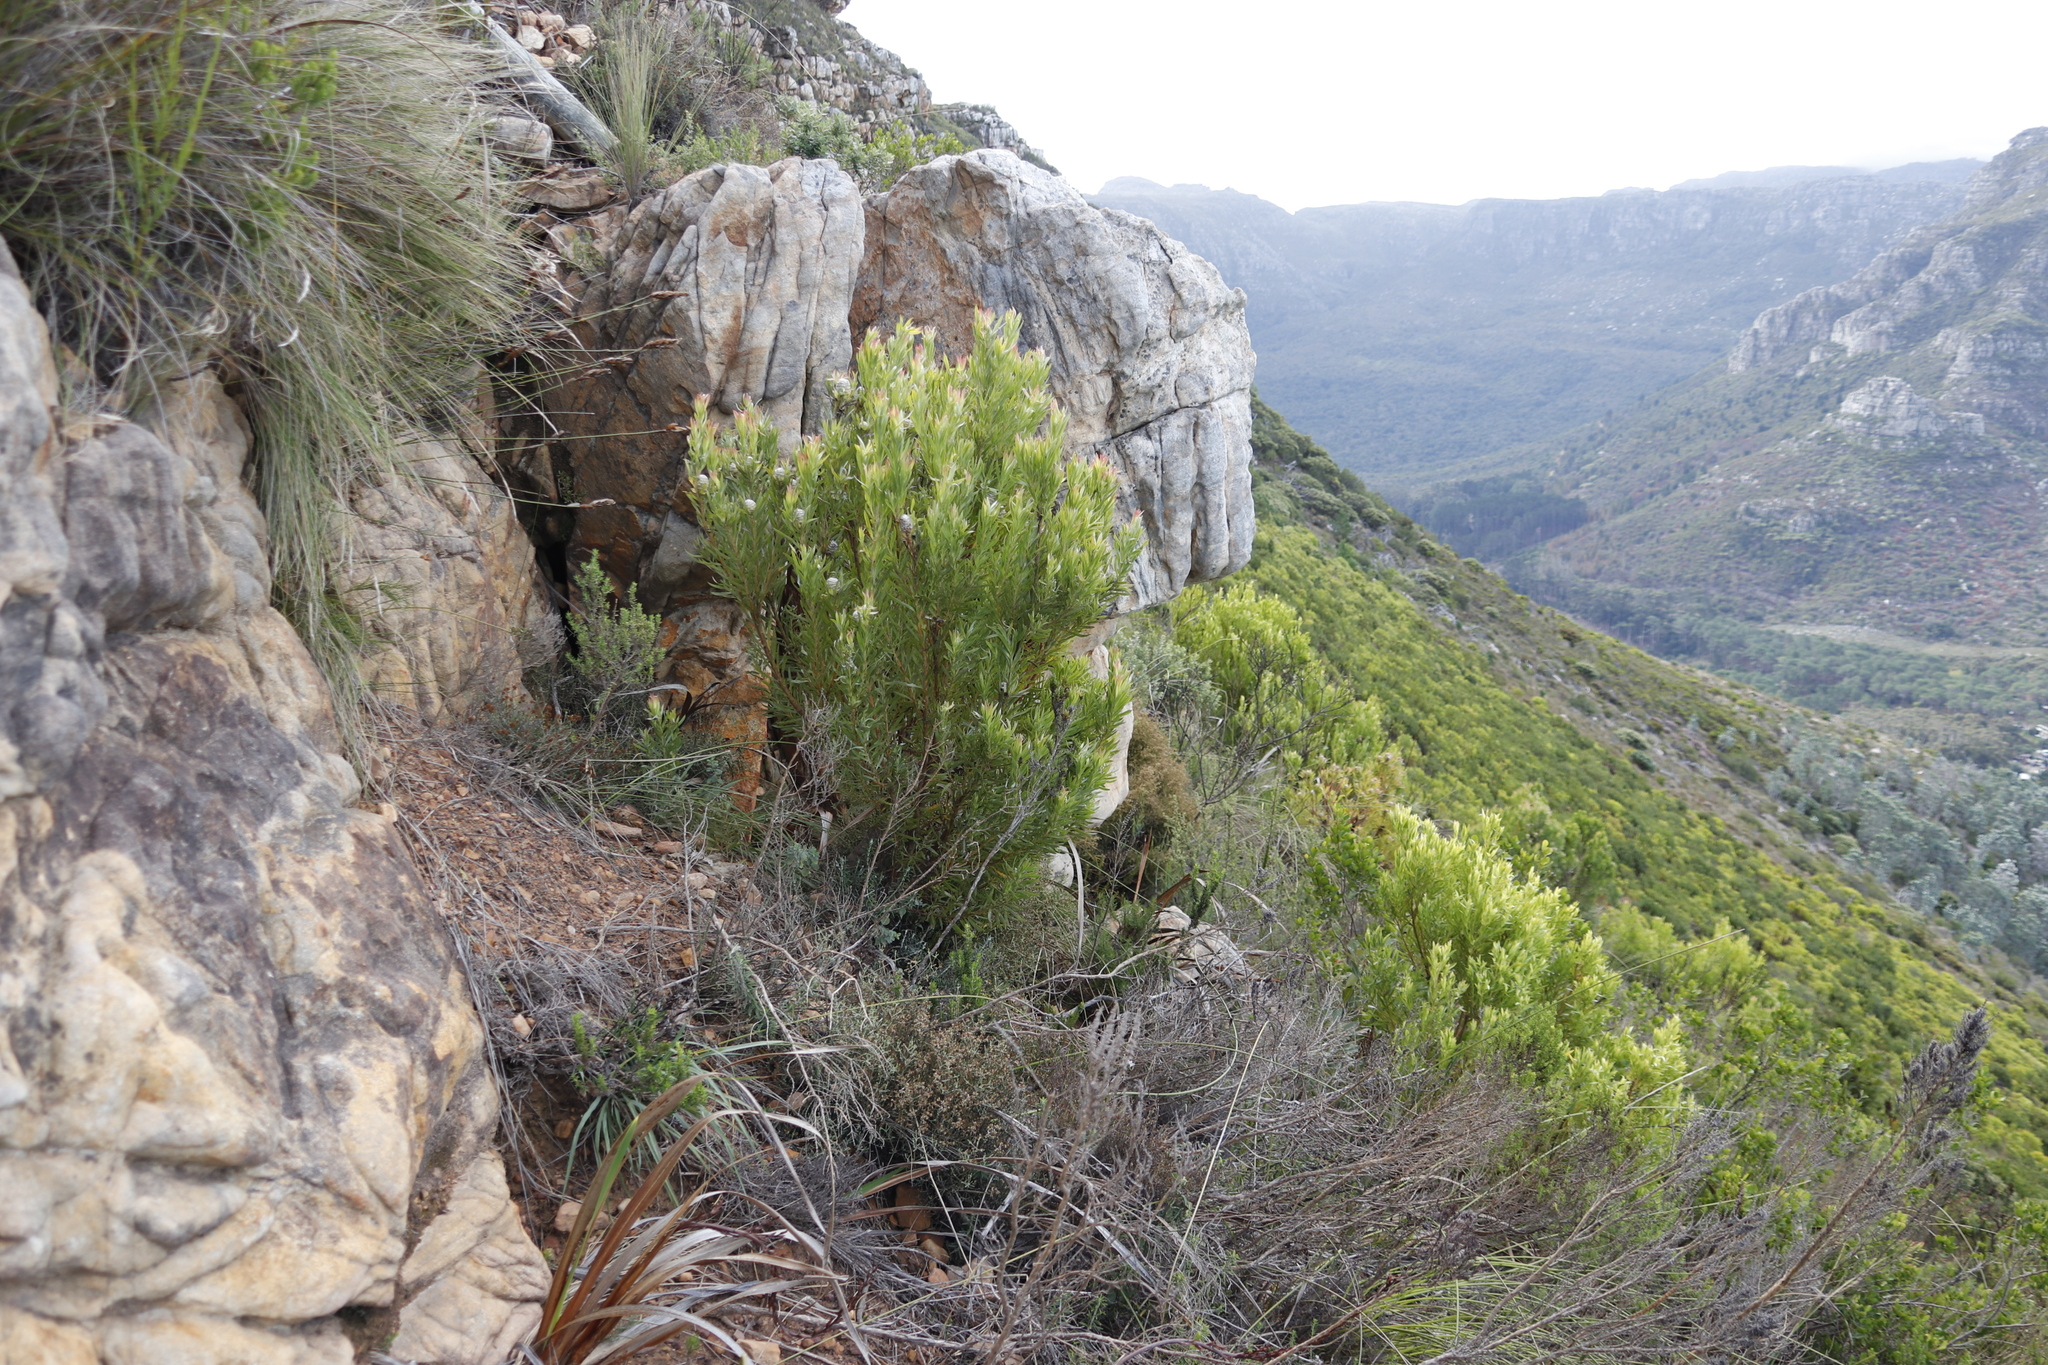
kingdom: Plantae
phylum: Tracheophyta
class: Magnoliopsida
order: Proteales
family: Proteaceae
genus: Leucadendron
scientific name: Leucadendron xanthoconus
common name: Sickle-leaf conebush
